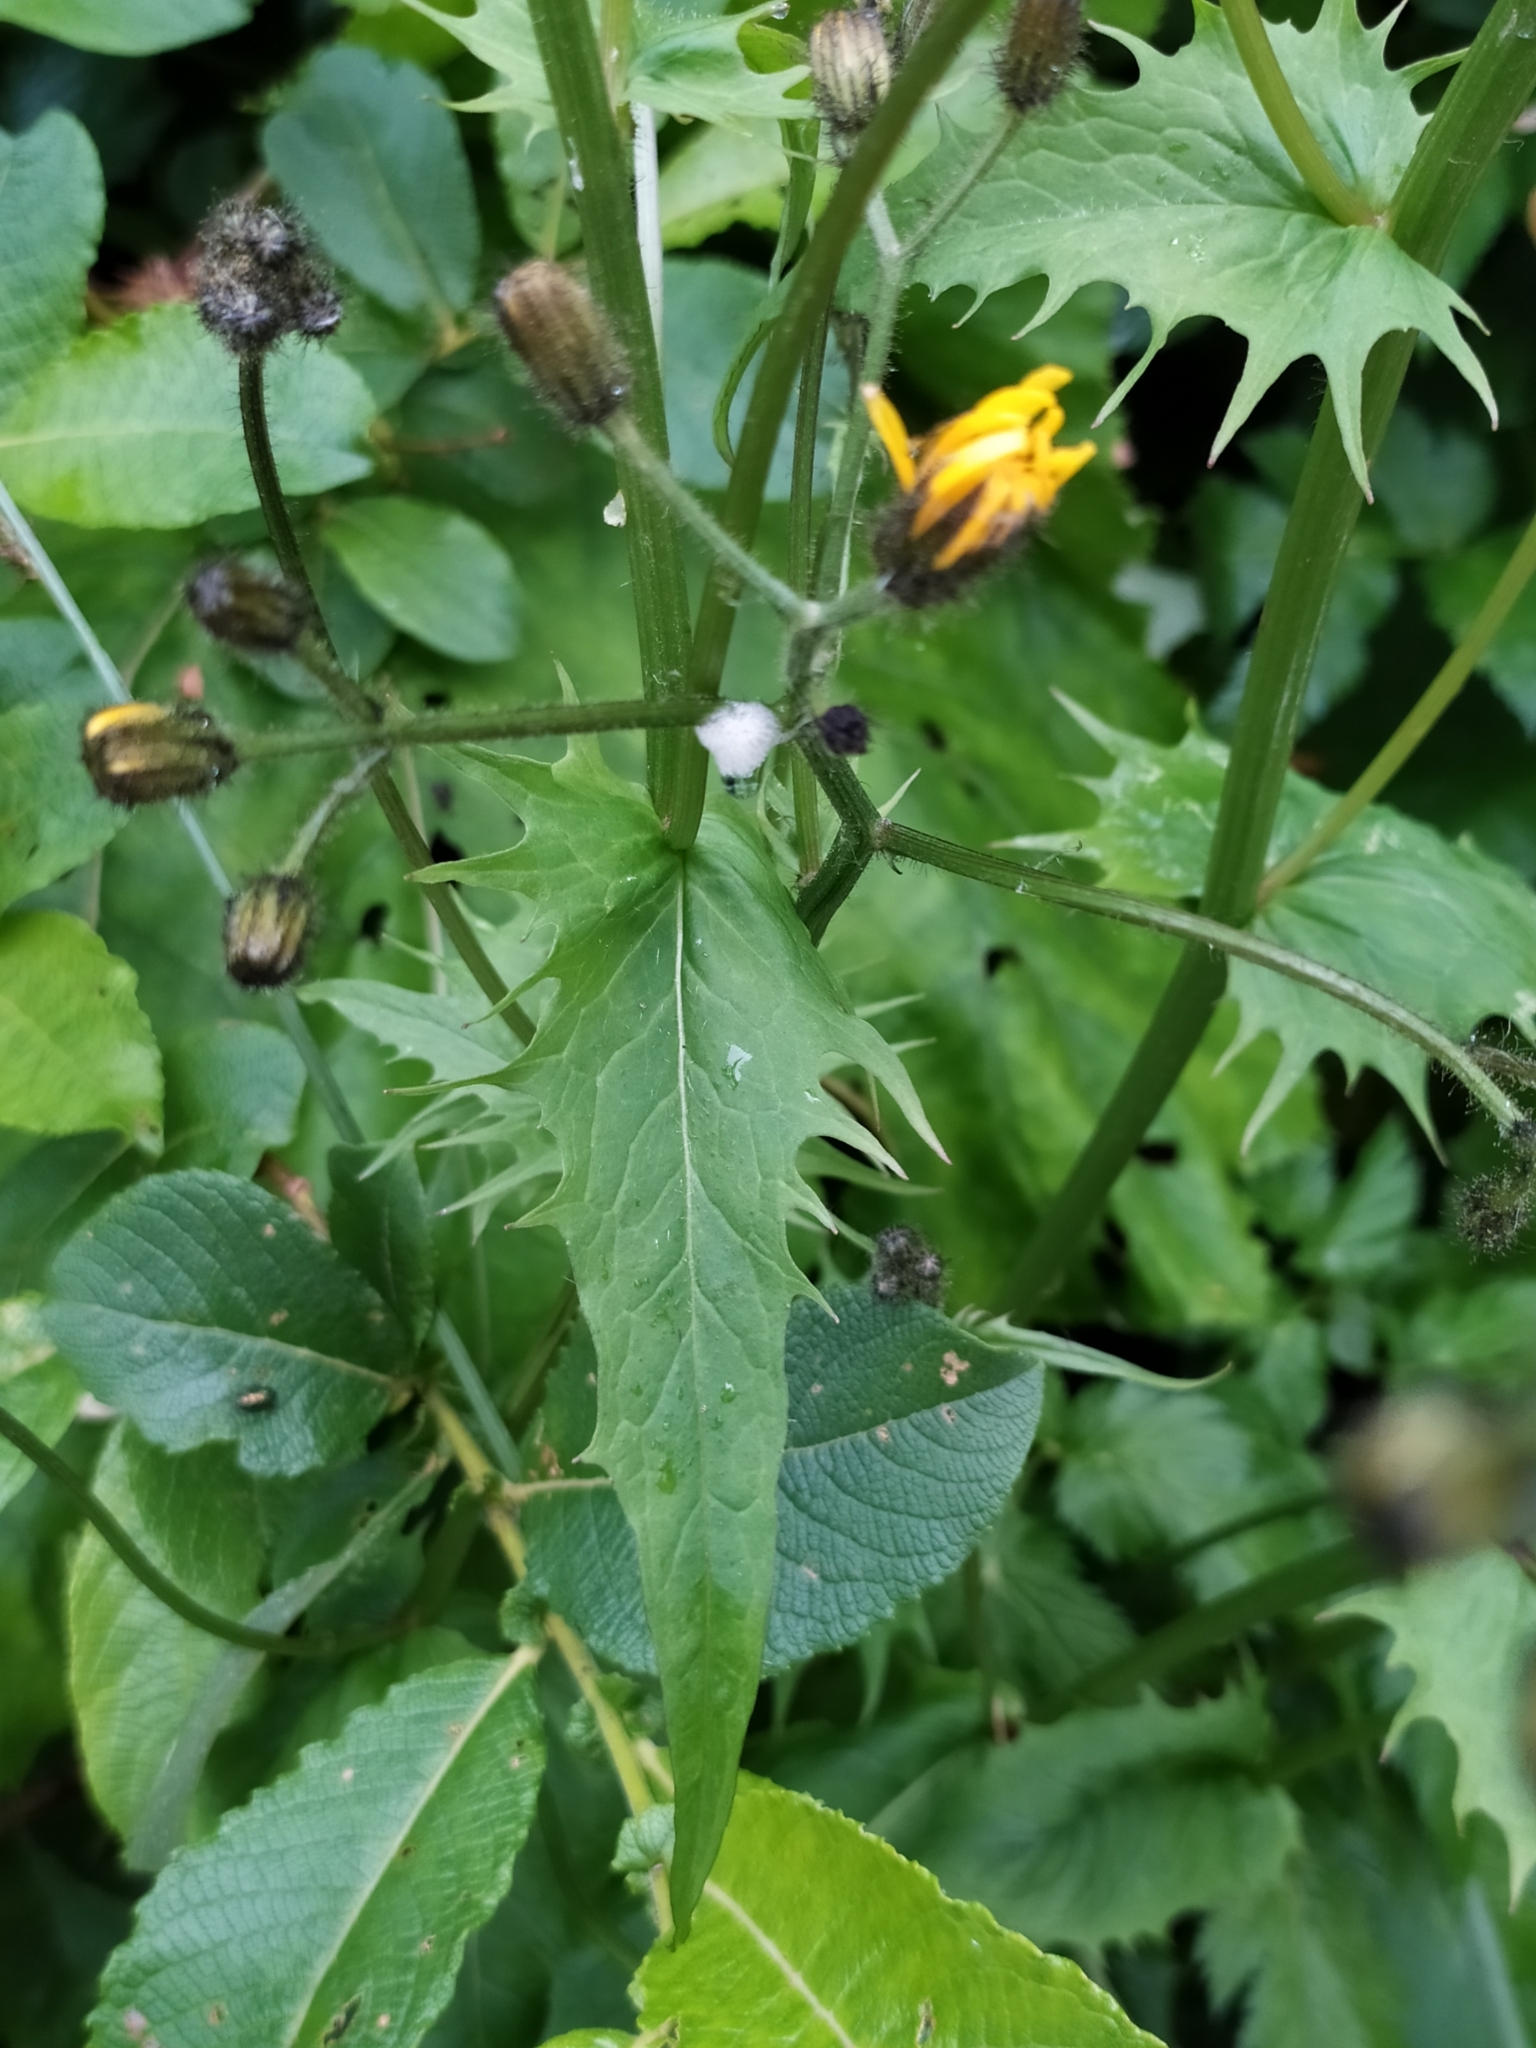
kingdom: Plantae
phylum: Tracheophyta
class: Magnoliopsida
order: Asterales
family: Asteraceae
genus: Crepis
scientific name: Crepis paludosa
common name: Marsh hawk's-beard
